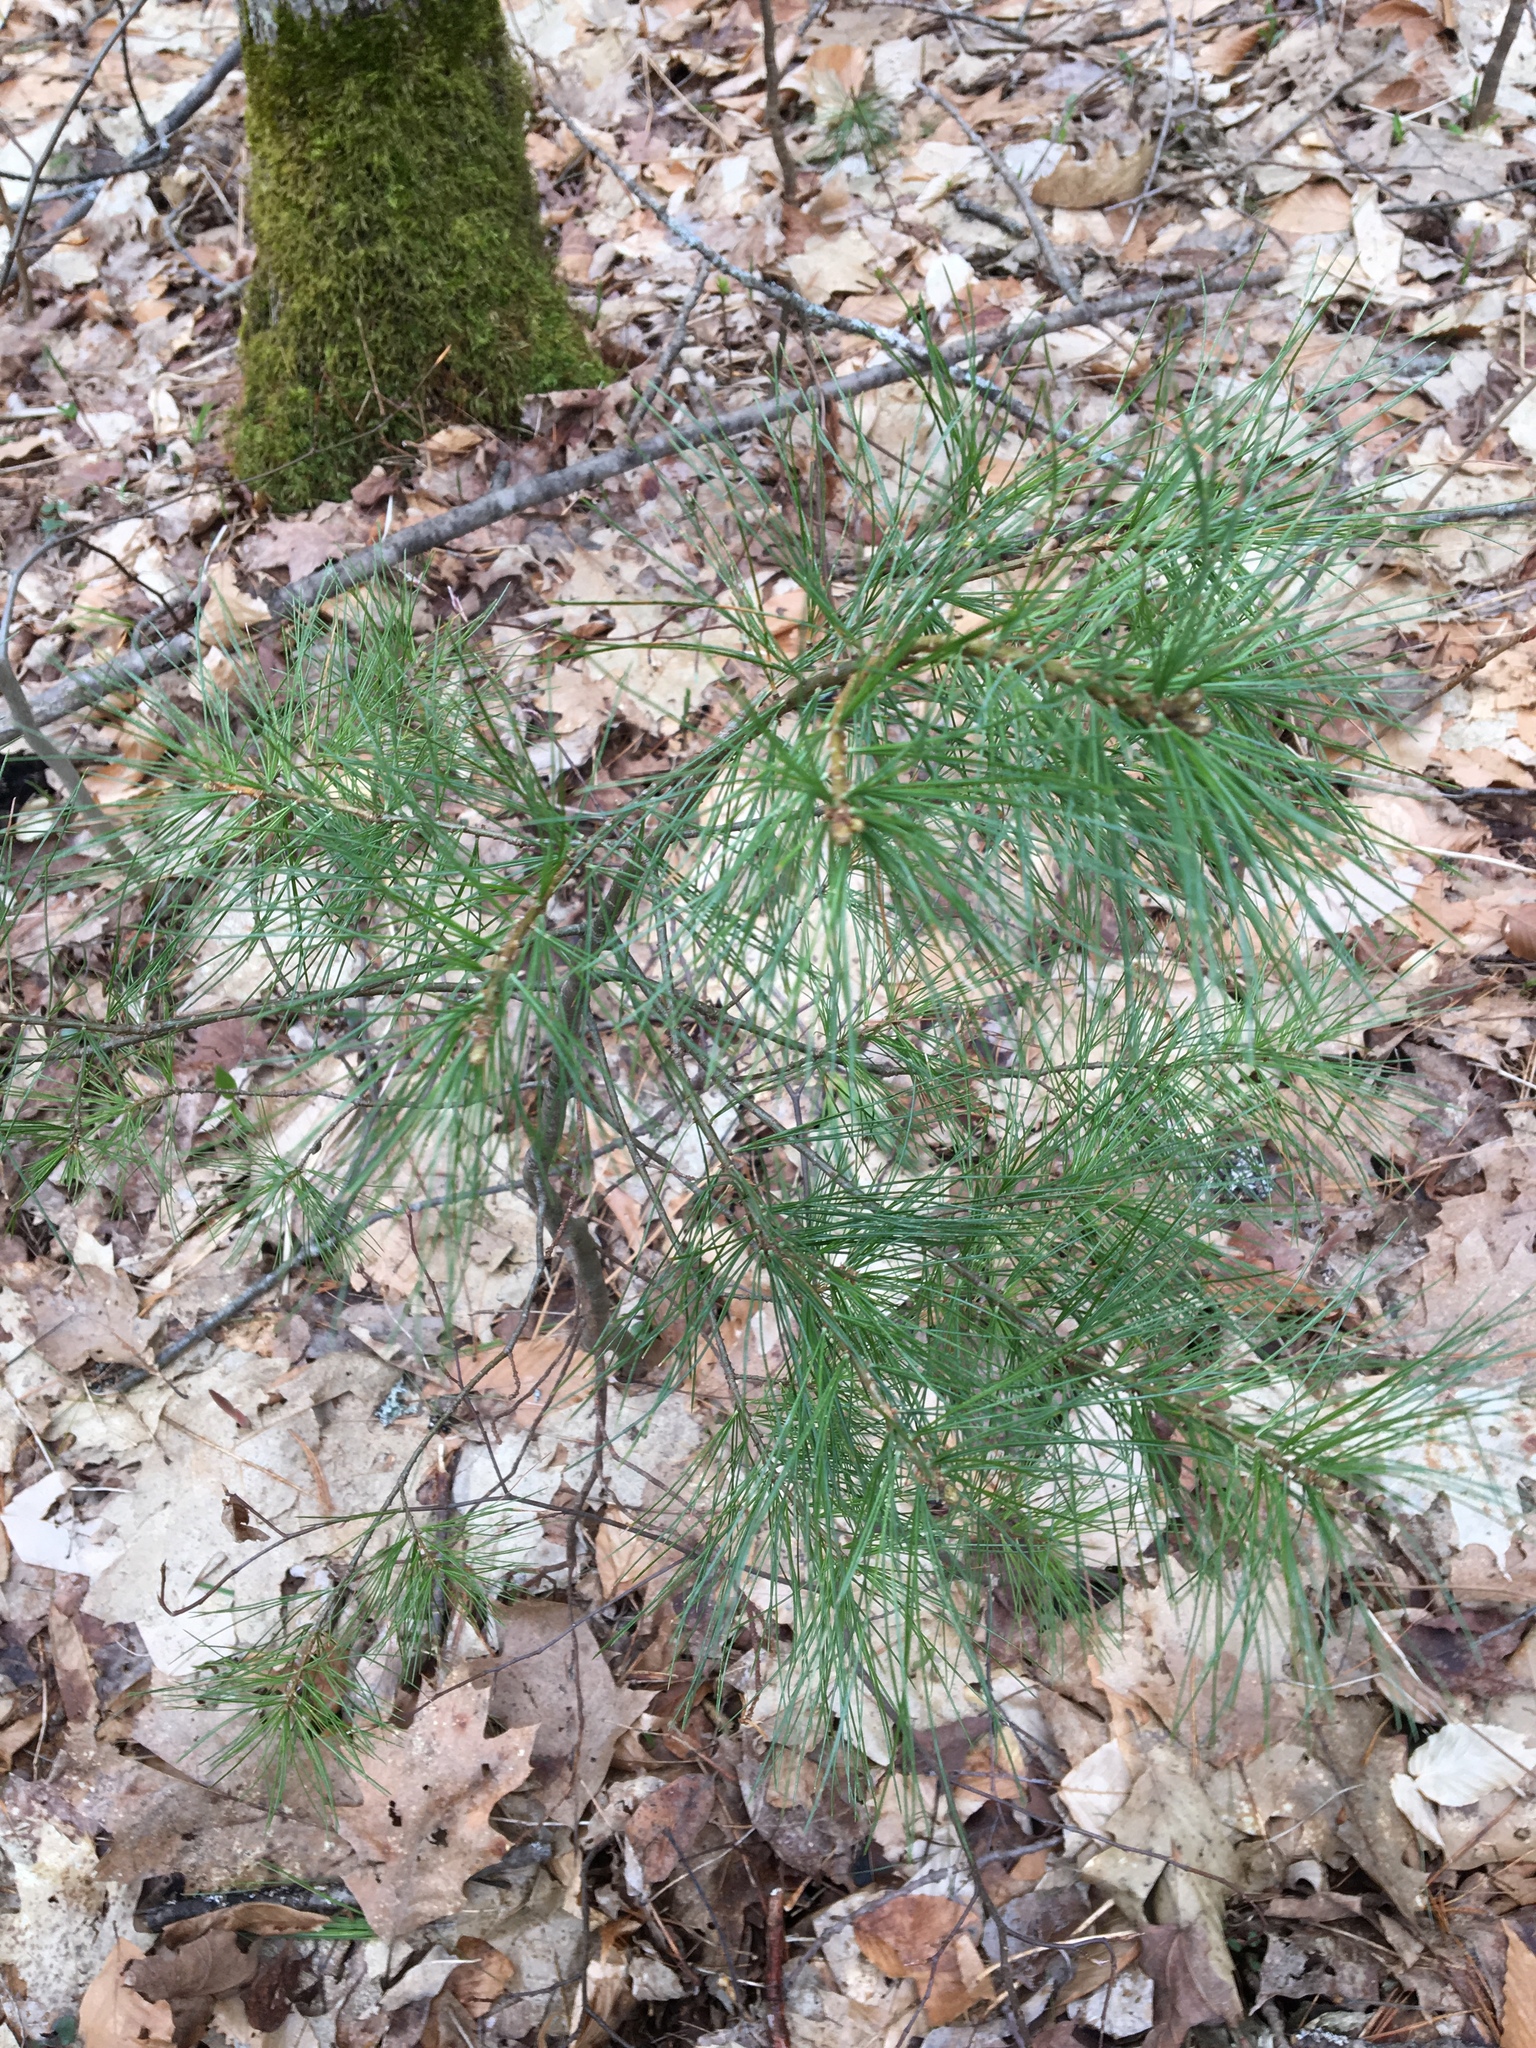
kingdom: Plantae
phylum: Tracheophyta
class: Pinopsida
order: Pinales
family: Pinaceae
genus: Pinus
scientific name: Pinus strobus
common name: Weymouth pine
